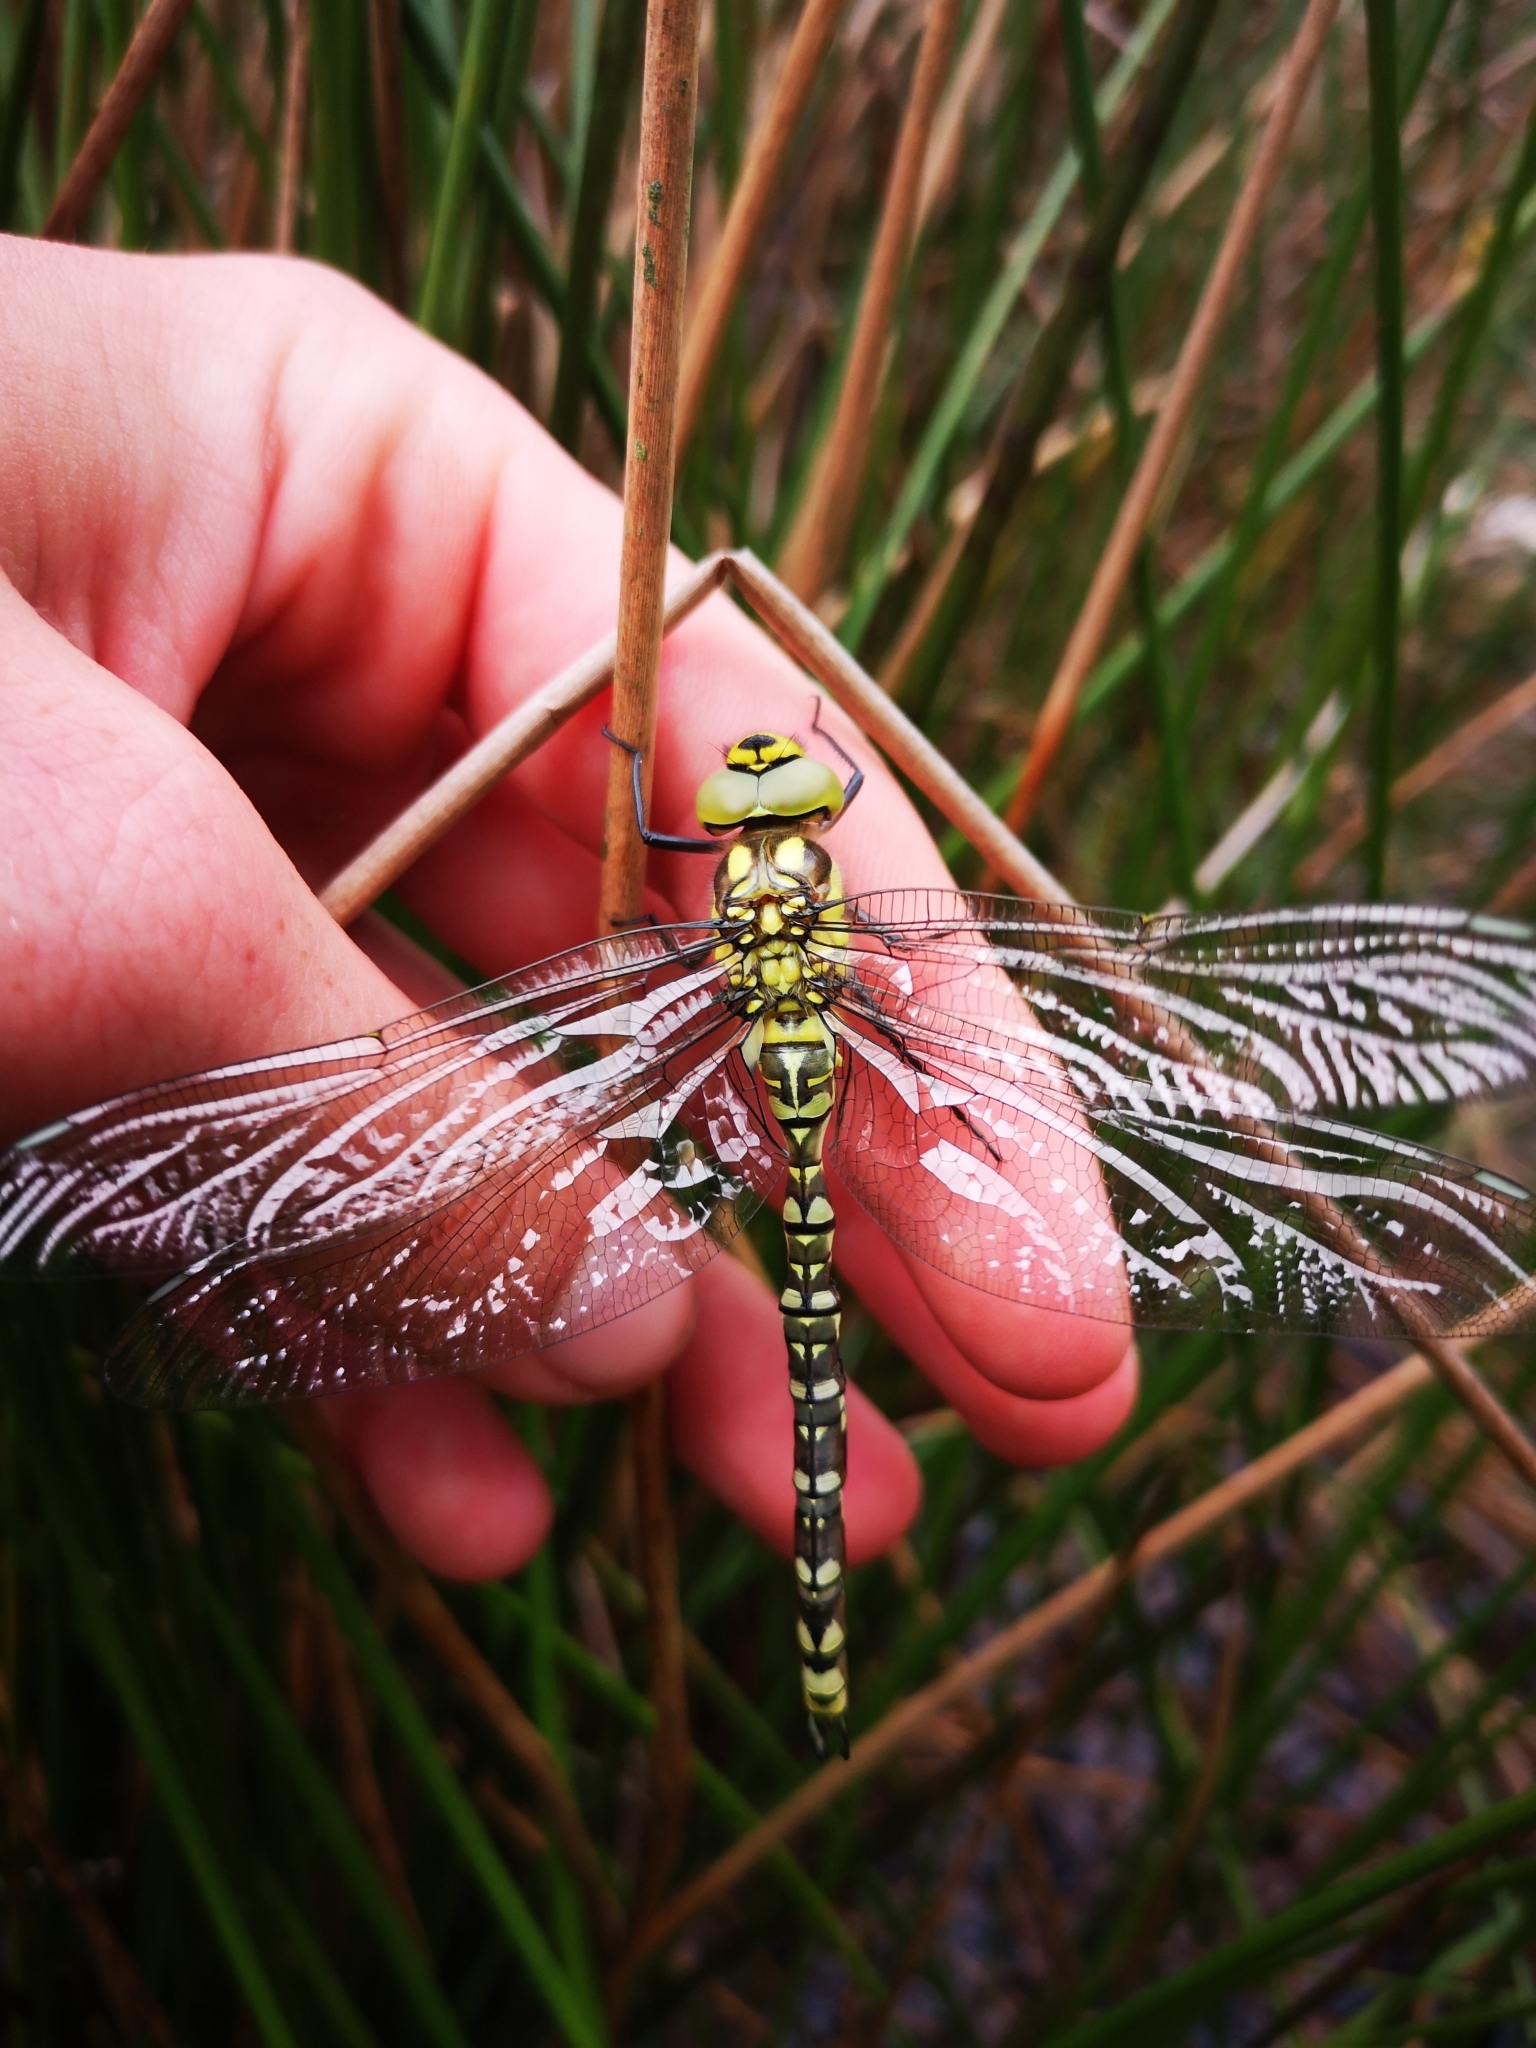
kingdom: Animalia
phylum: Arthropoda
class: Insecta
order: Odonata
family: Aeshnidae
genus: Aeshna
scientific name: Aeshna cyanea
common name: Southern hawker
